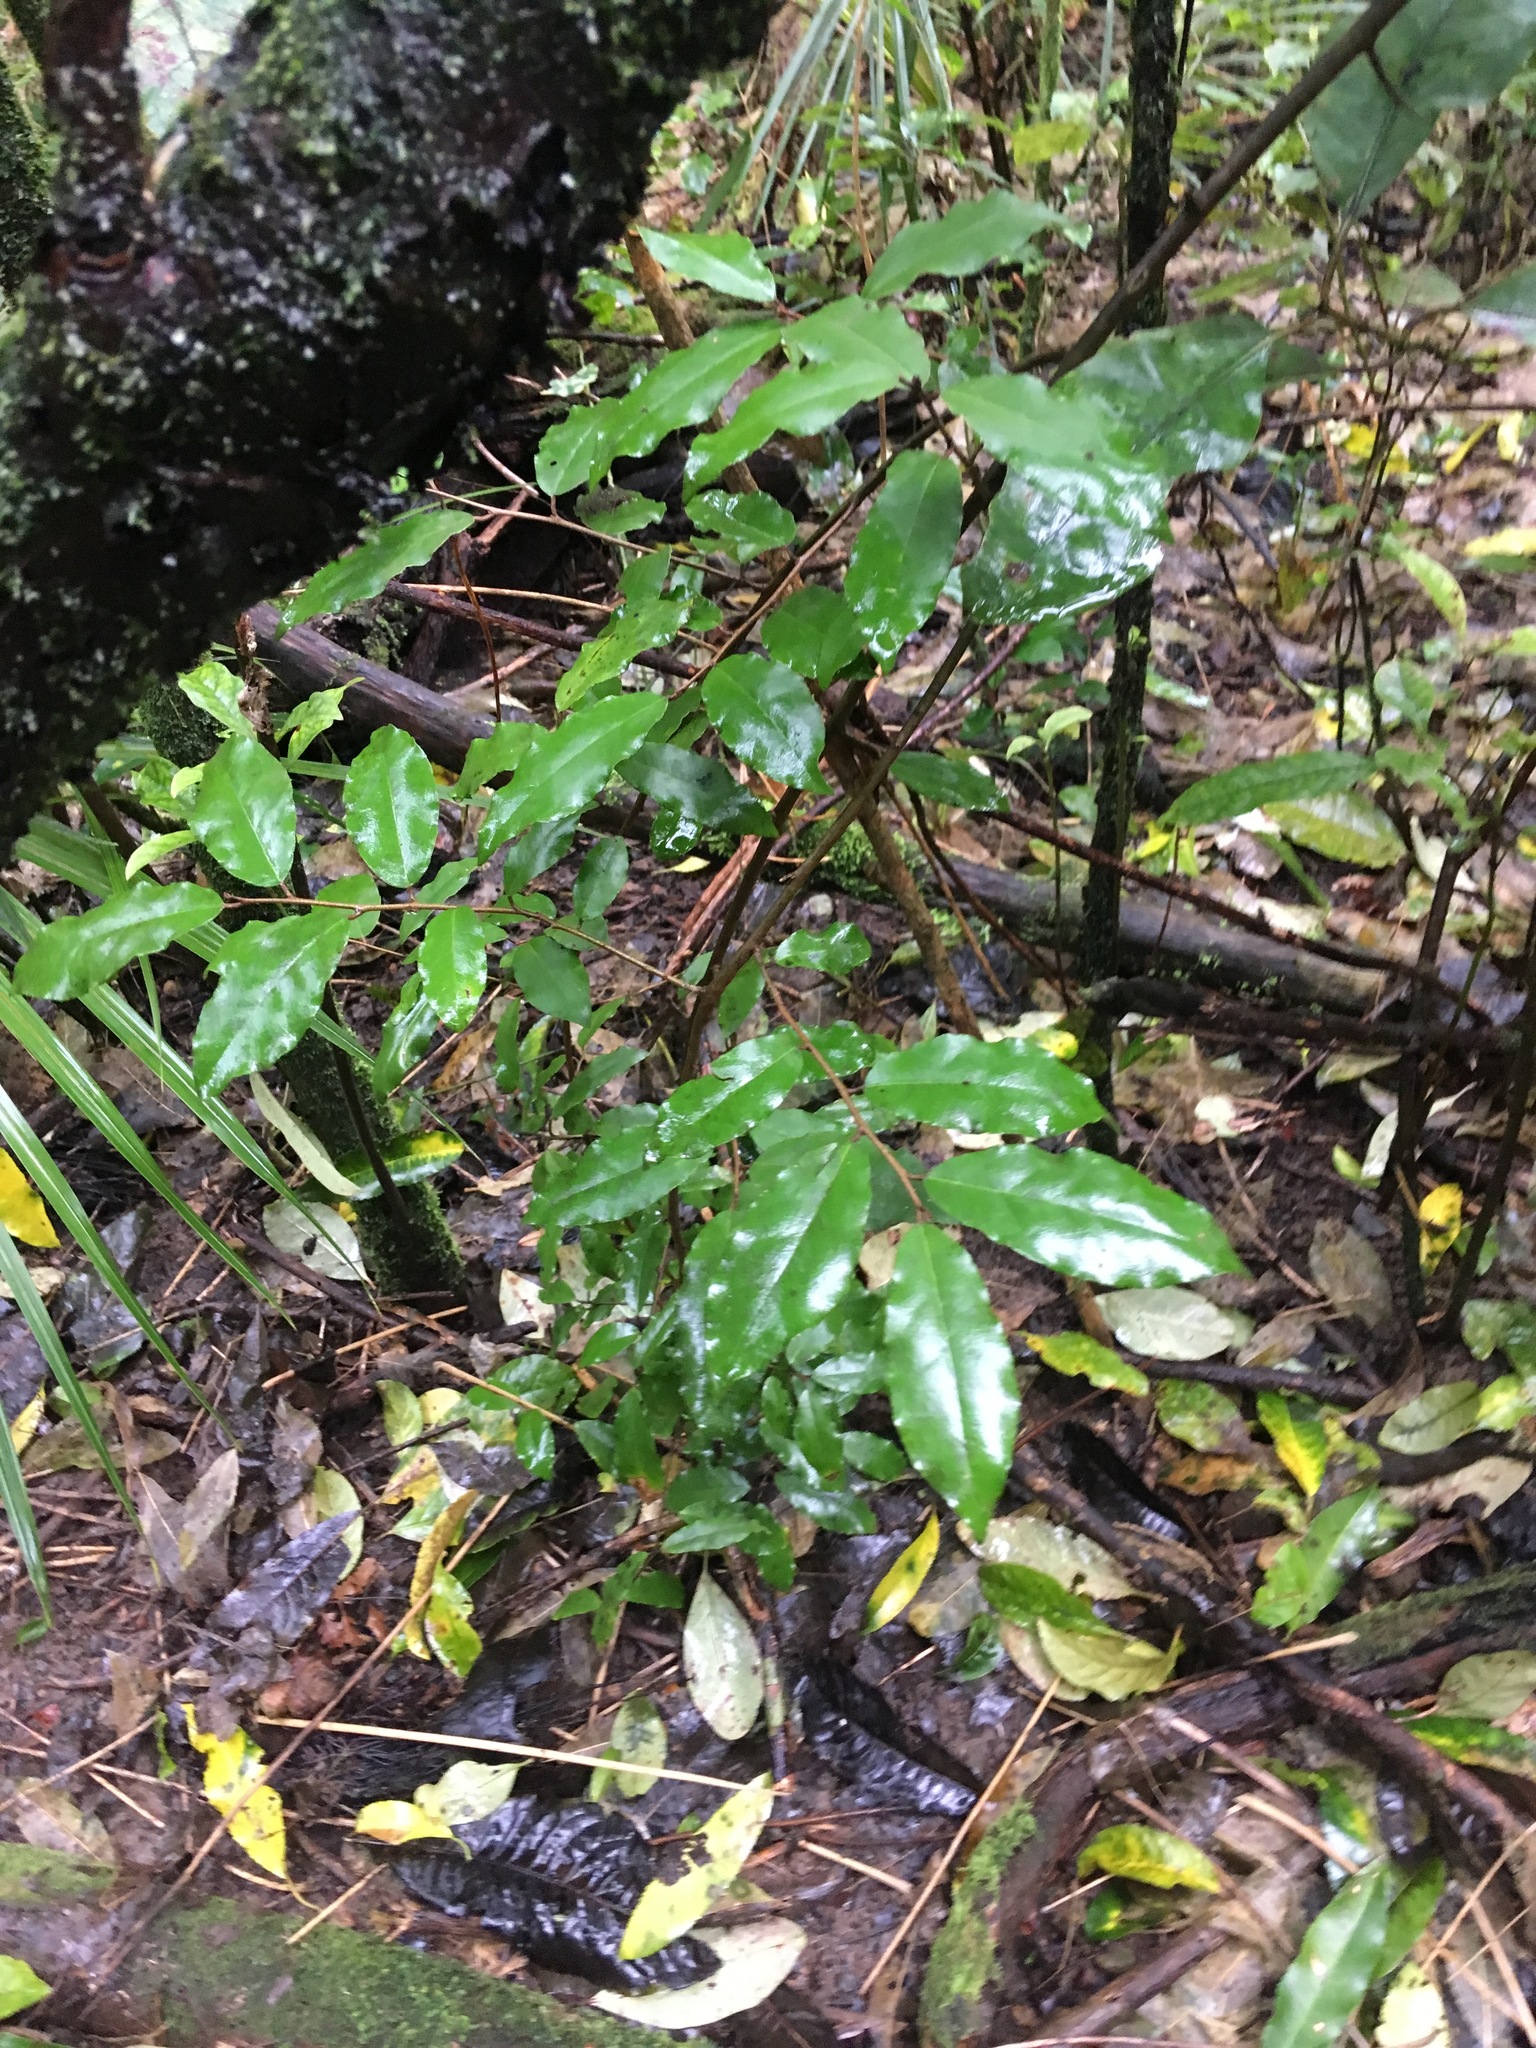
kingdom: Plantae
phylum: Tracheophyta
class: Magnoliopsida
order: Rosales
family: Elaeagnaceae
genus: Elaeagnus
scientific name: Elaeagnus reflexa
